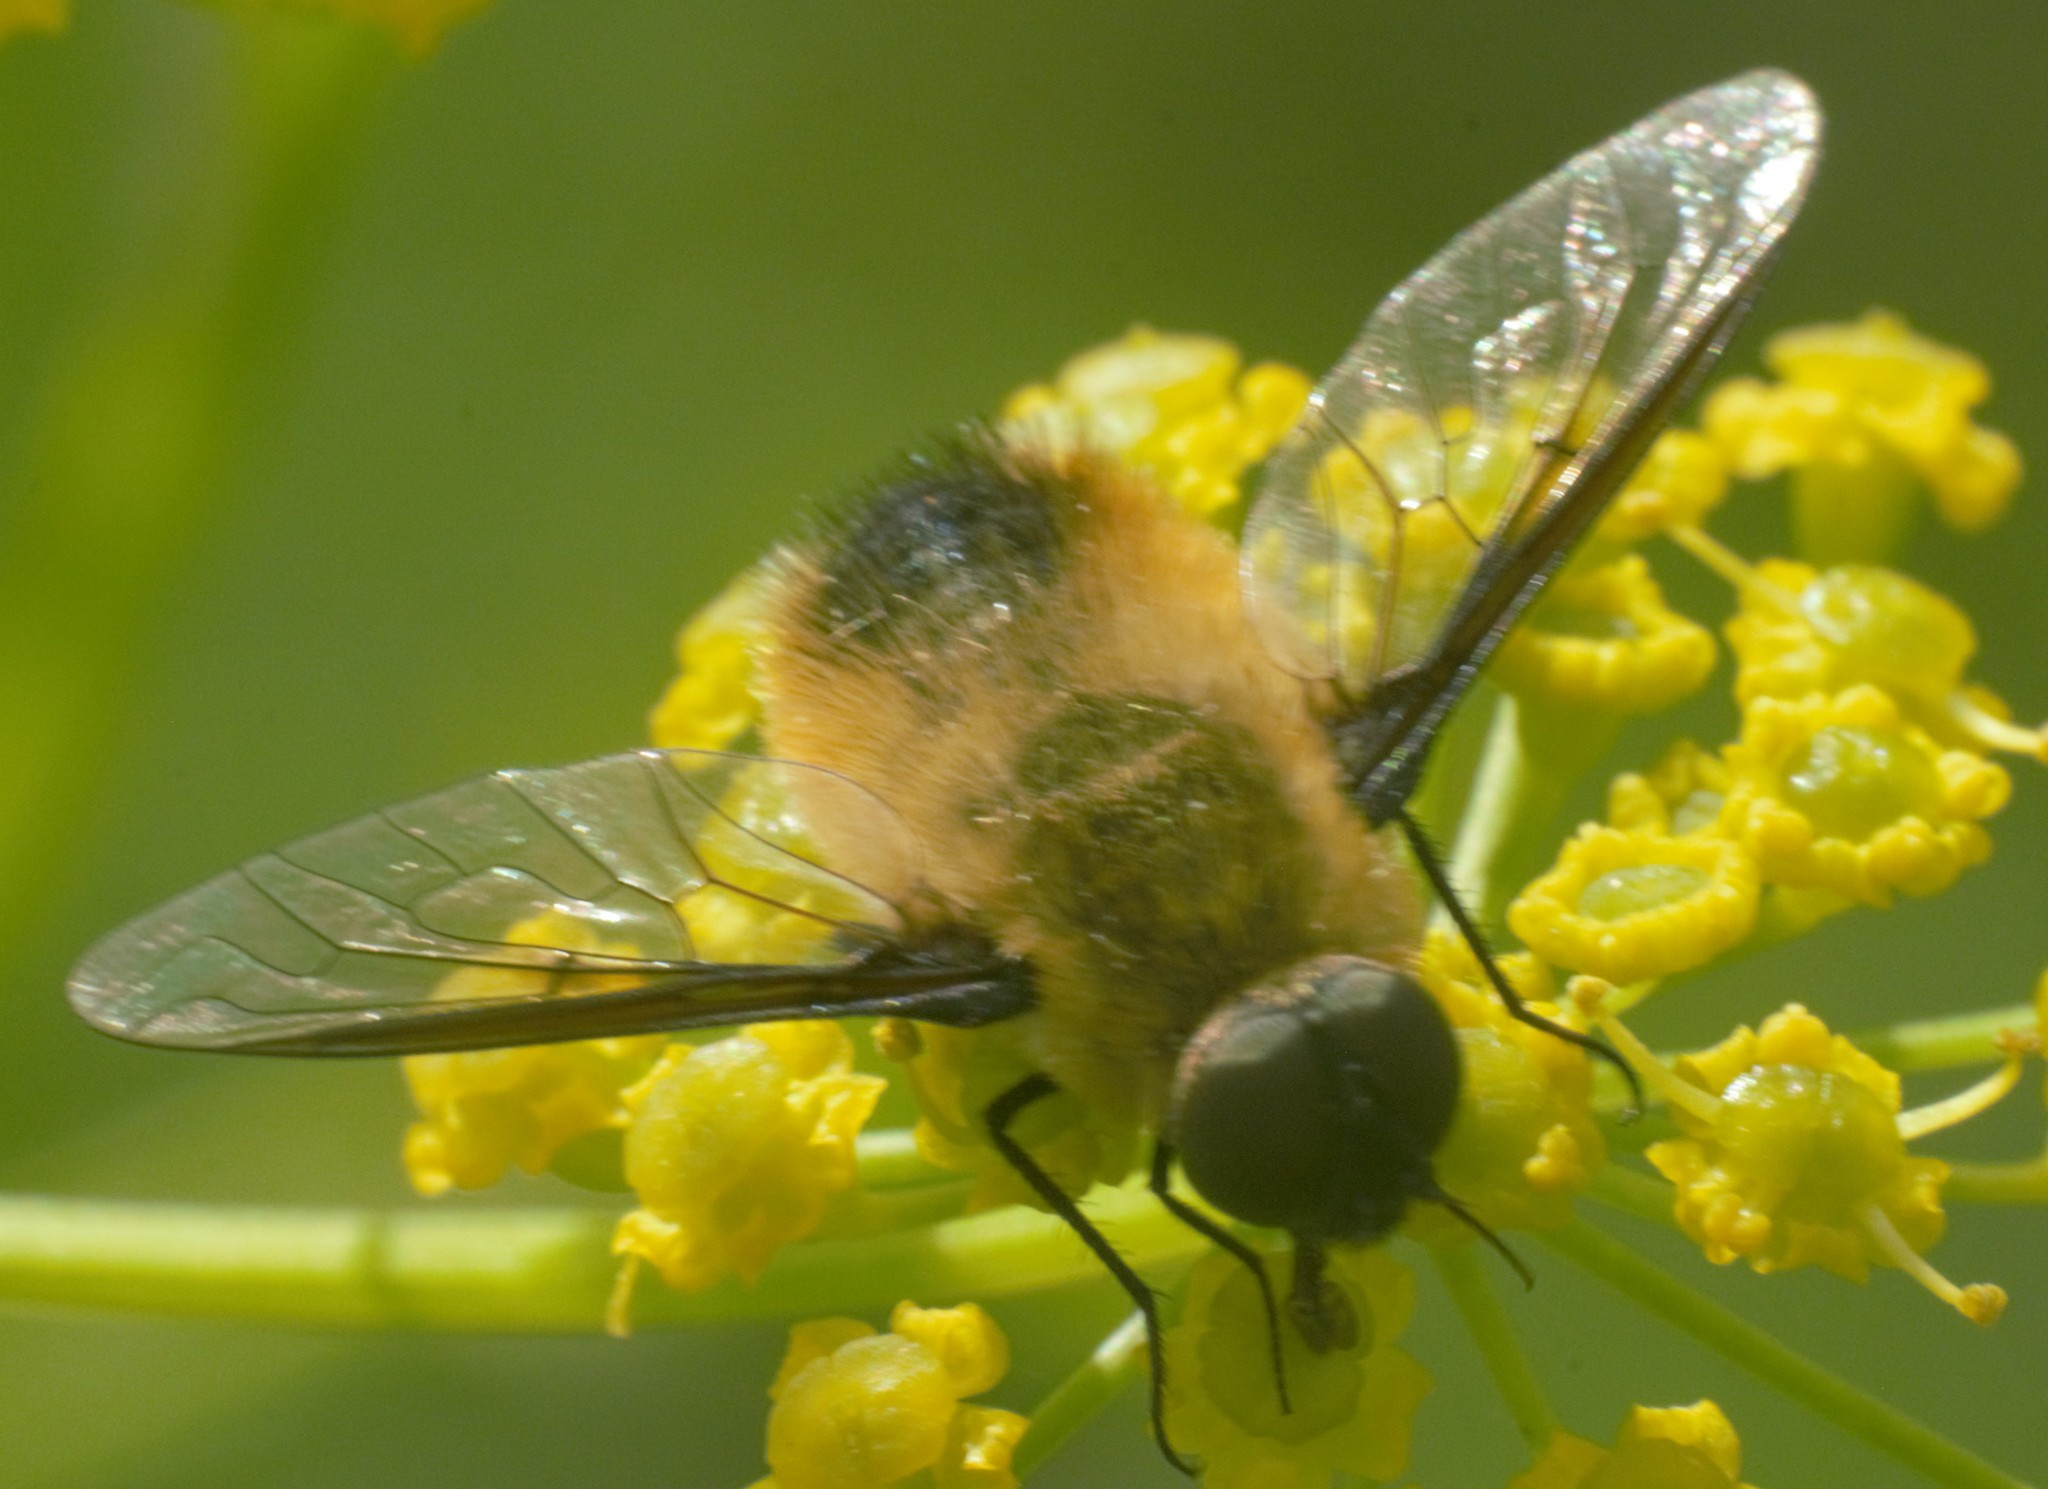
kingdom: Animalia
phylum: Arthropoda
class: Insecta
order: Diptera
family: Bombyliidae
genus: Villa
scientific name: Villa fulviana
